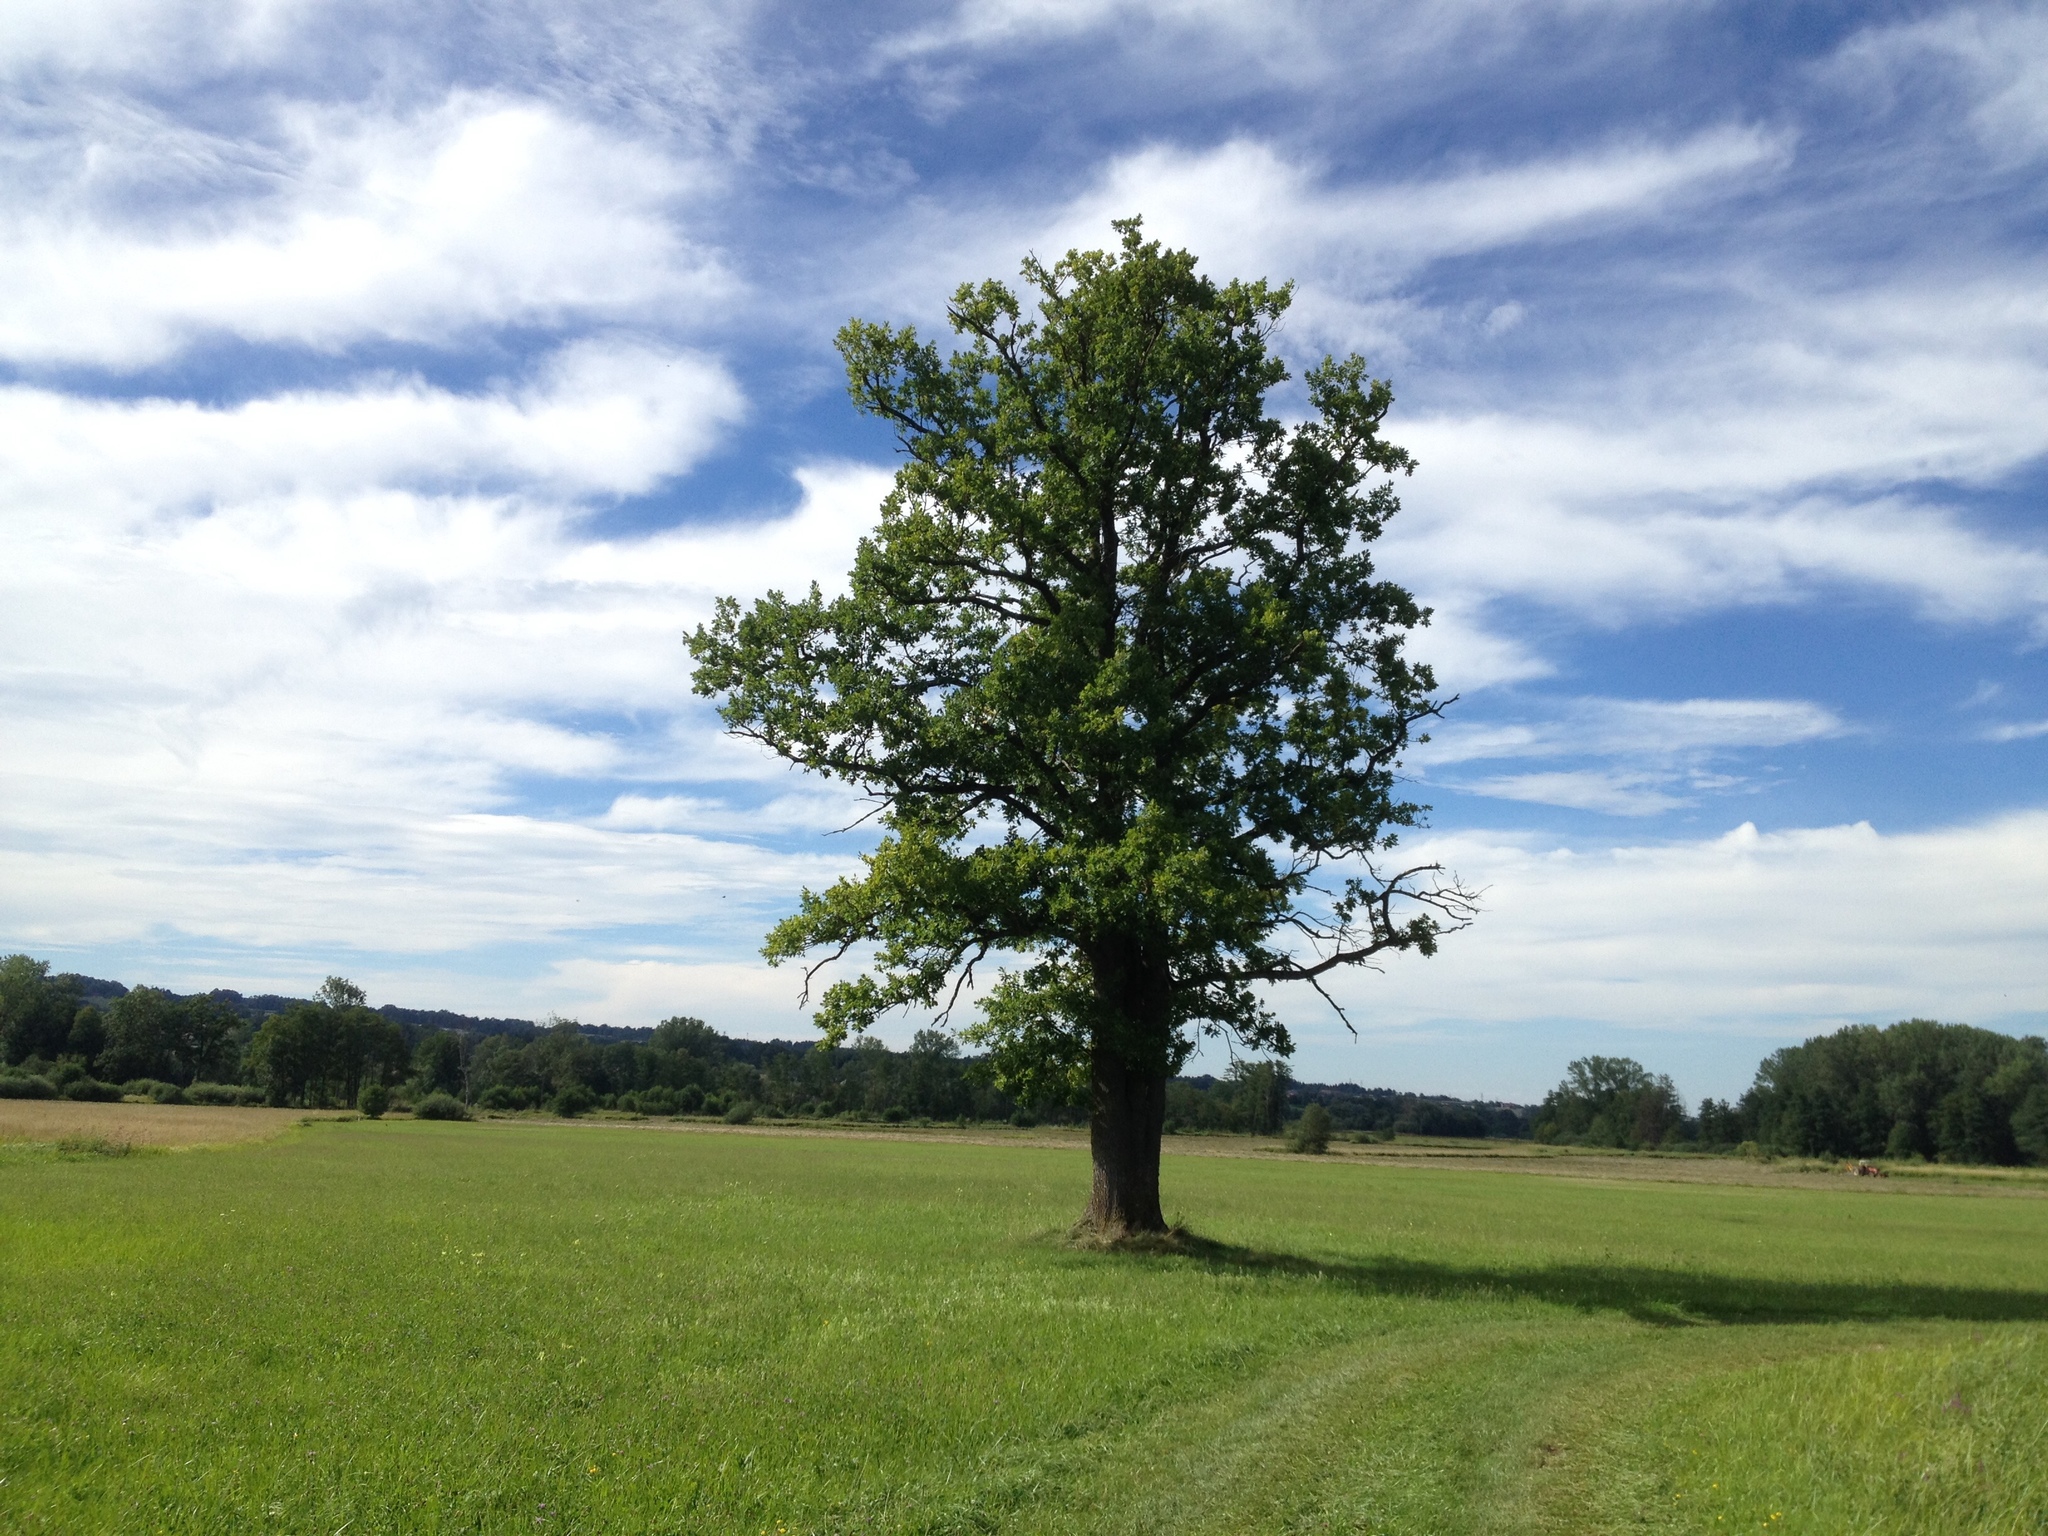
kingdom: Plantae
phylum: Tracheophyta
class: Magnoliopsida
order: Fagales
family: Fagaceae
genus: Quercus
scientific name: Quercus robur
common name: Pedunculate oak
